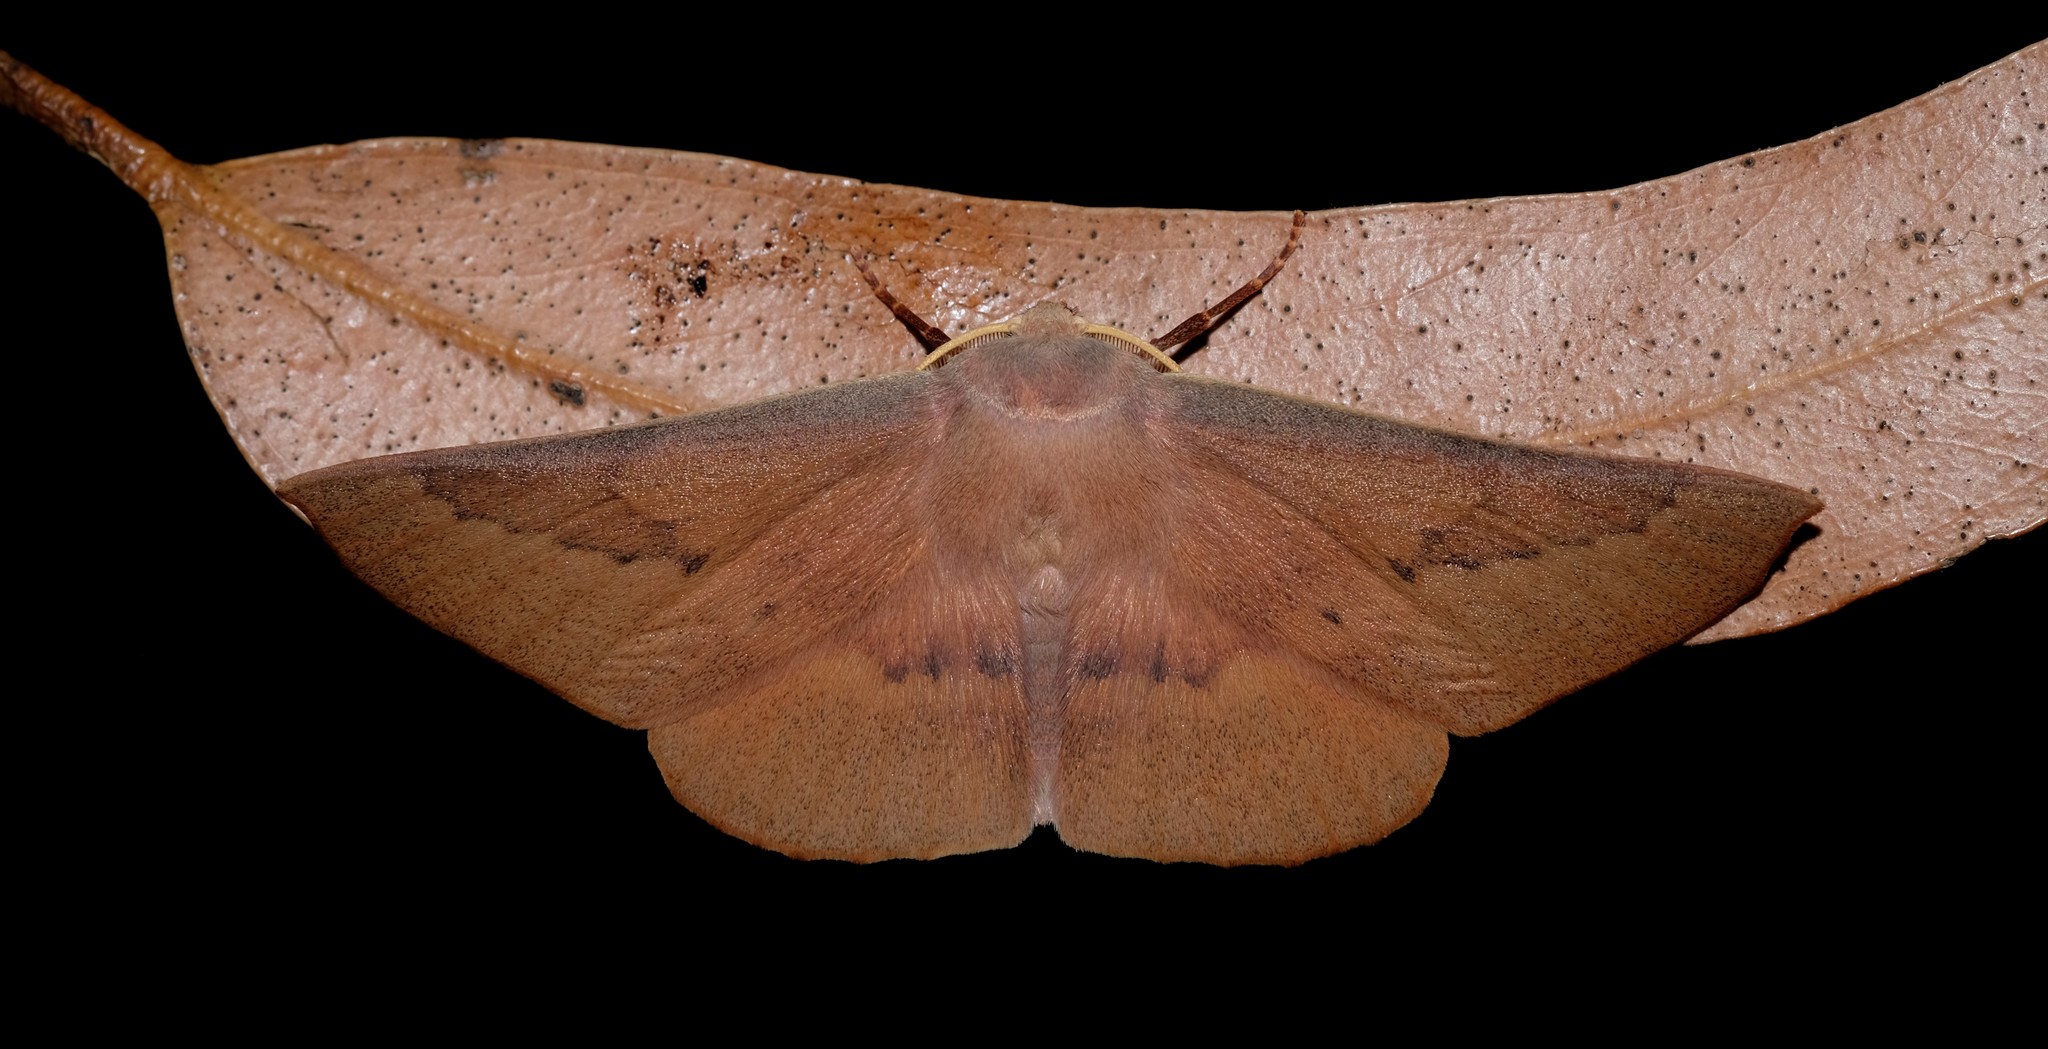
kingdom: Animalia
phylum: Arthropoda
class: Insecta
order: Lepidoptera
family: Geometridae
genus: Monoctenia
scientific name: Monoctenia falernaria
